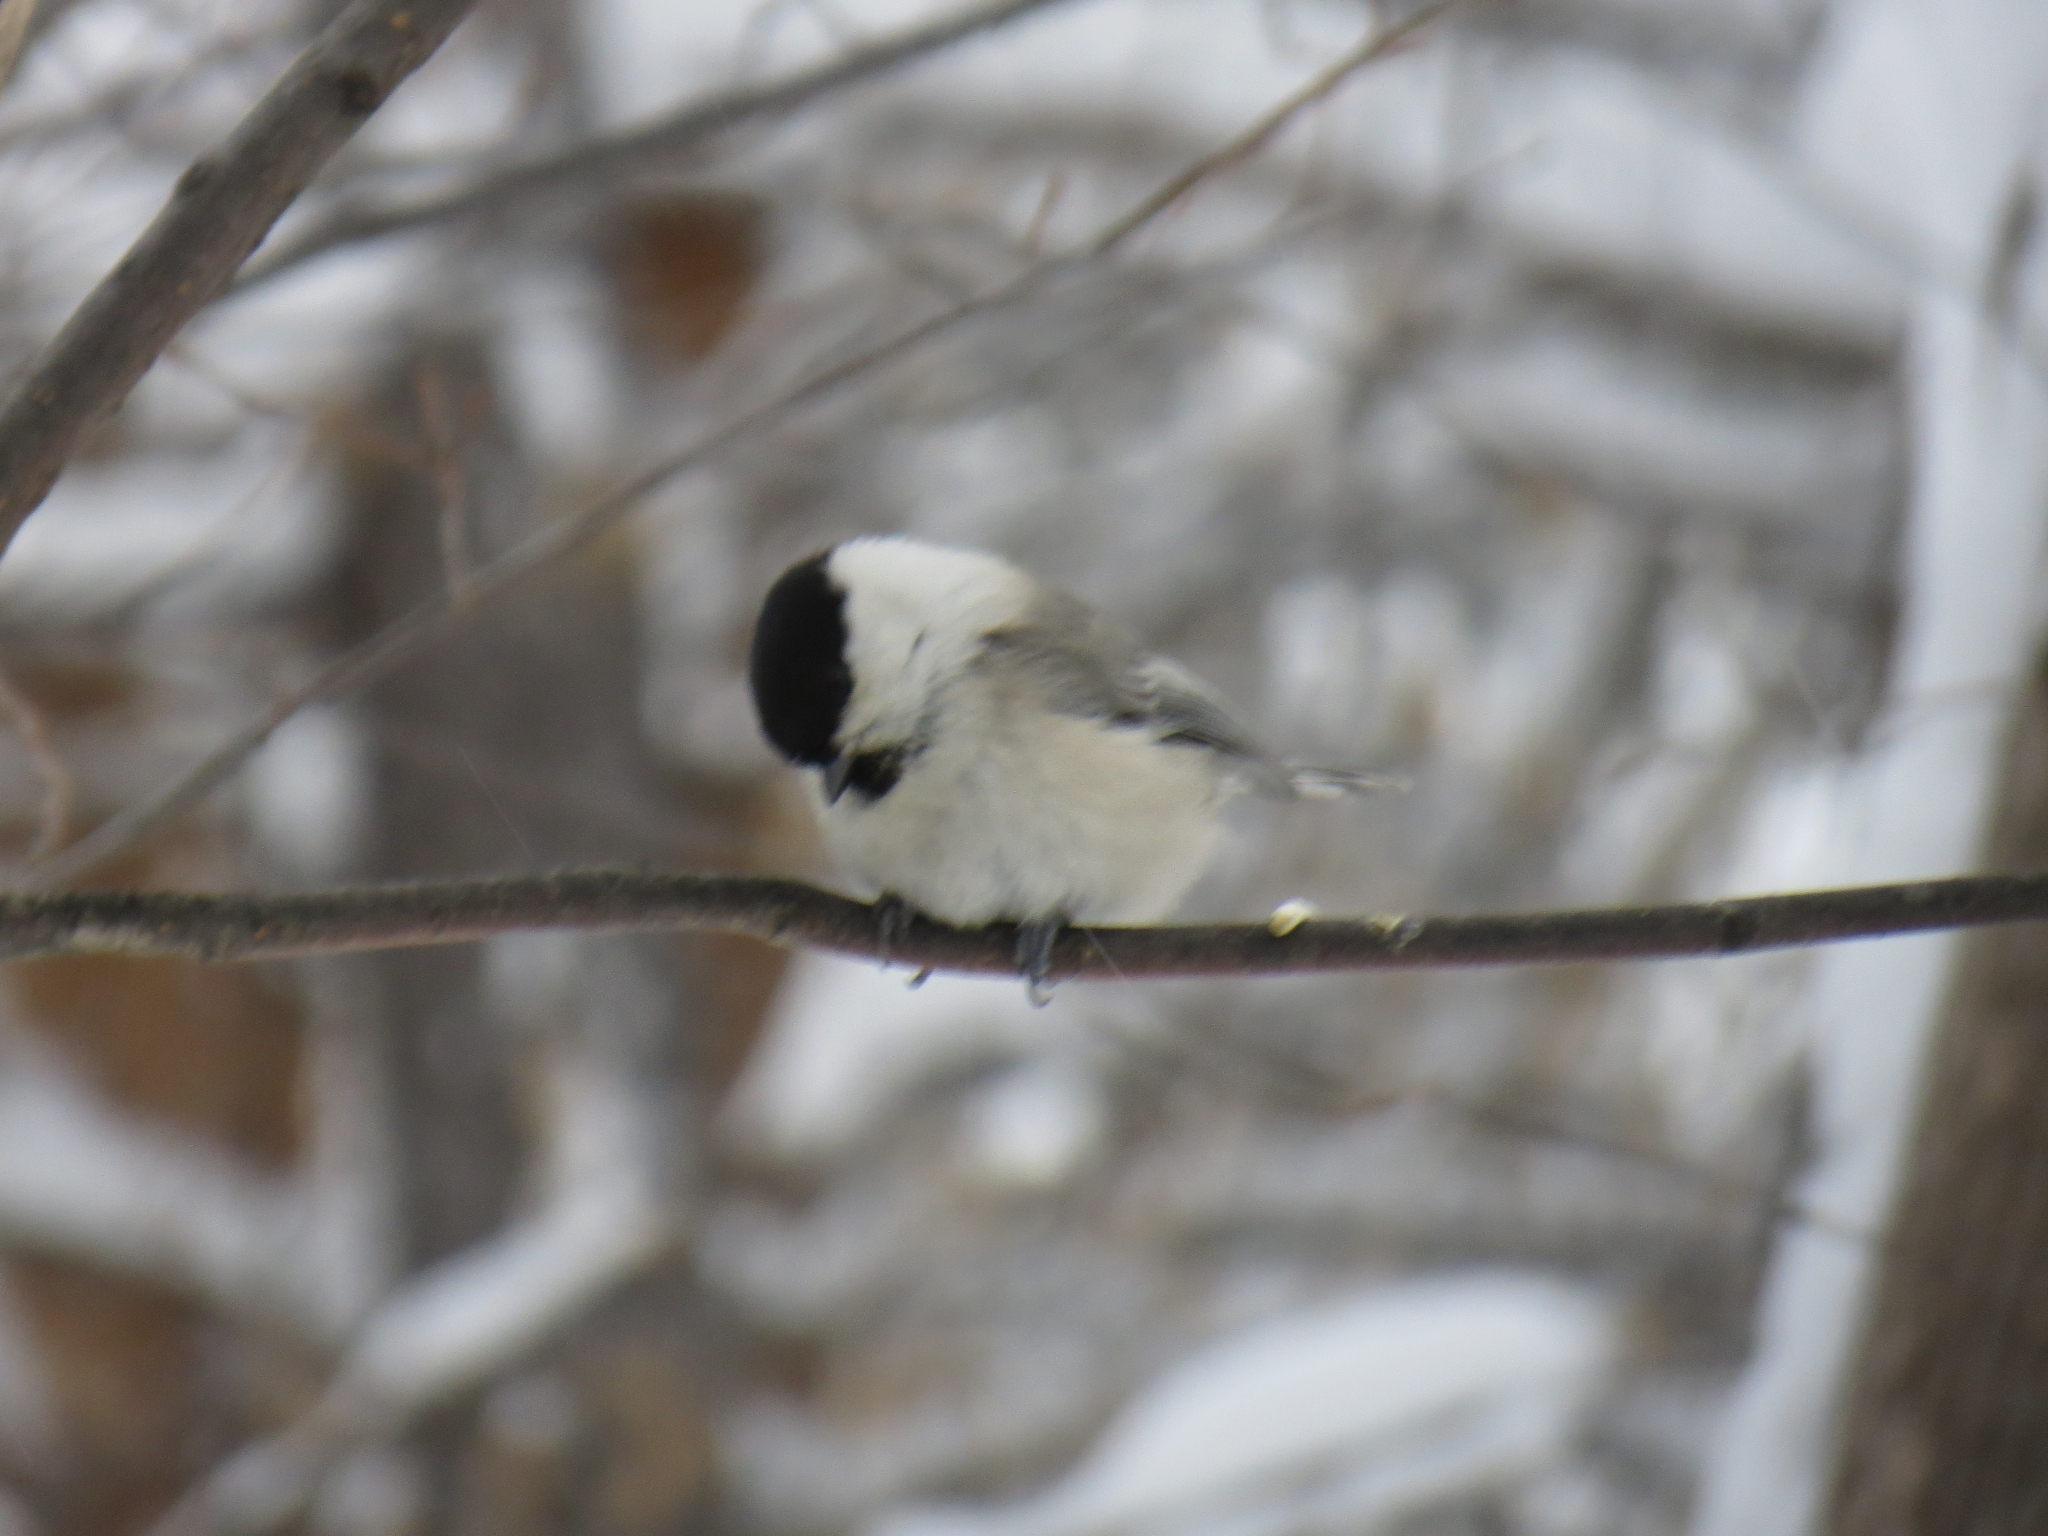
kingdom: Animalia
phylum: Chordata
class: Aves
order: Passeriformes
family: Paridae
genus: Poecile
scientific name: Poecile montanus
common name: Willow tit
